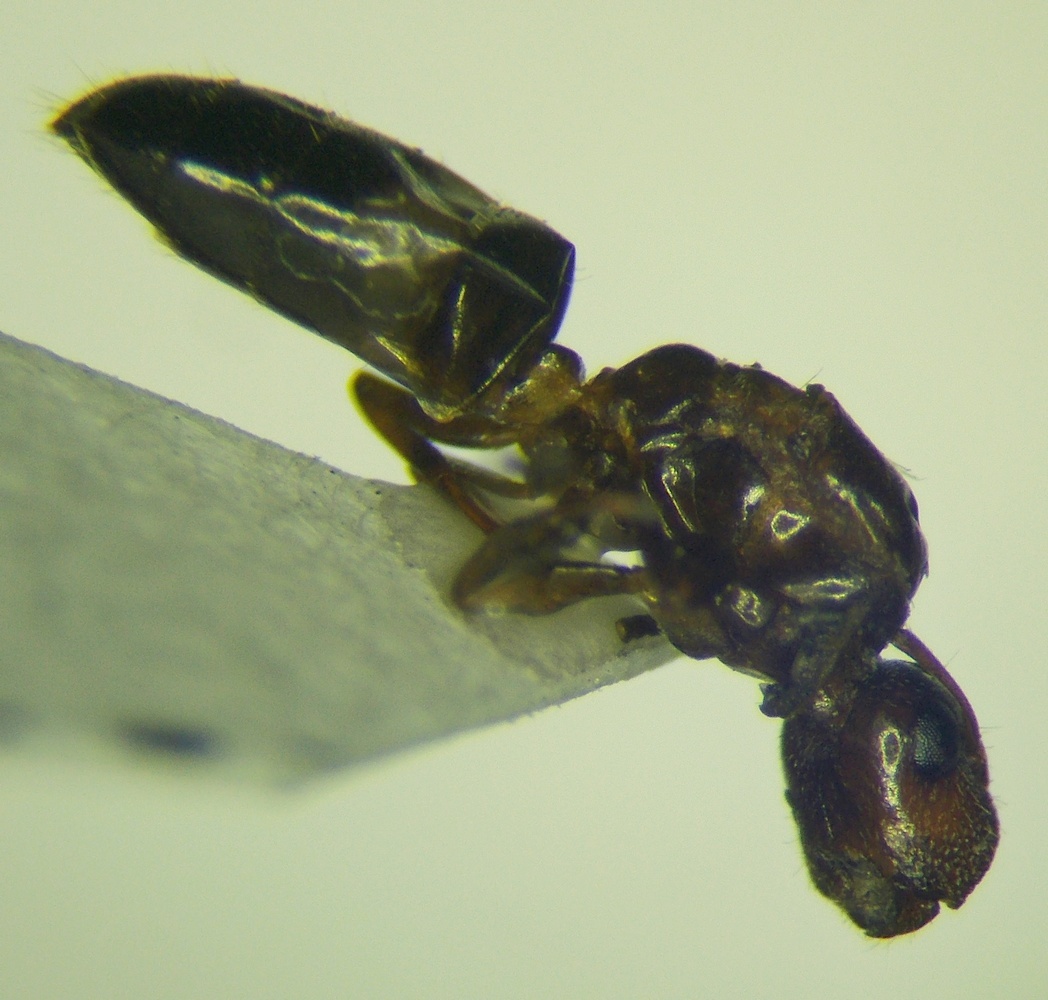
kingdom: Animalia
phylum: Arthropoda
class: Insecta
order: Hymenoptera
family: Formicidae
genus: Camponotus
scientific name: Camponotus truncatus
